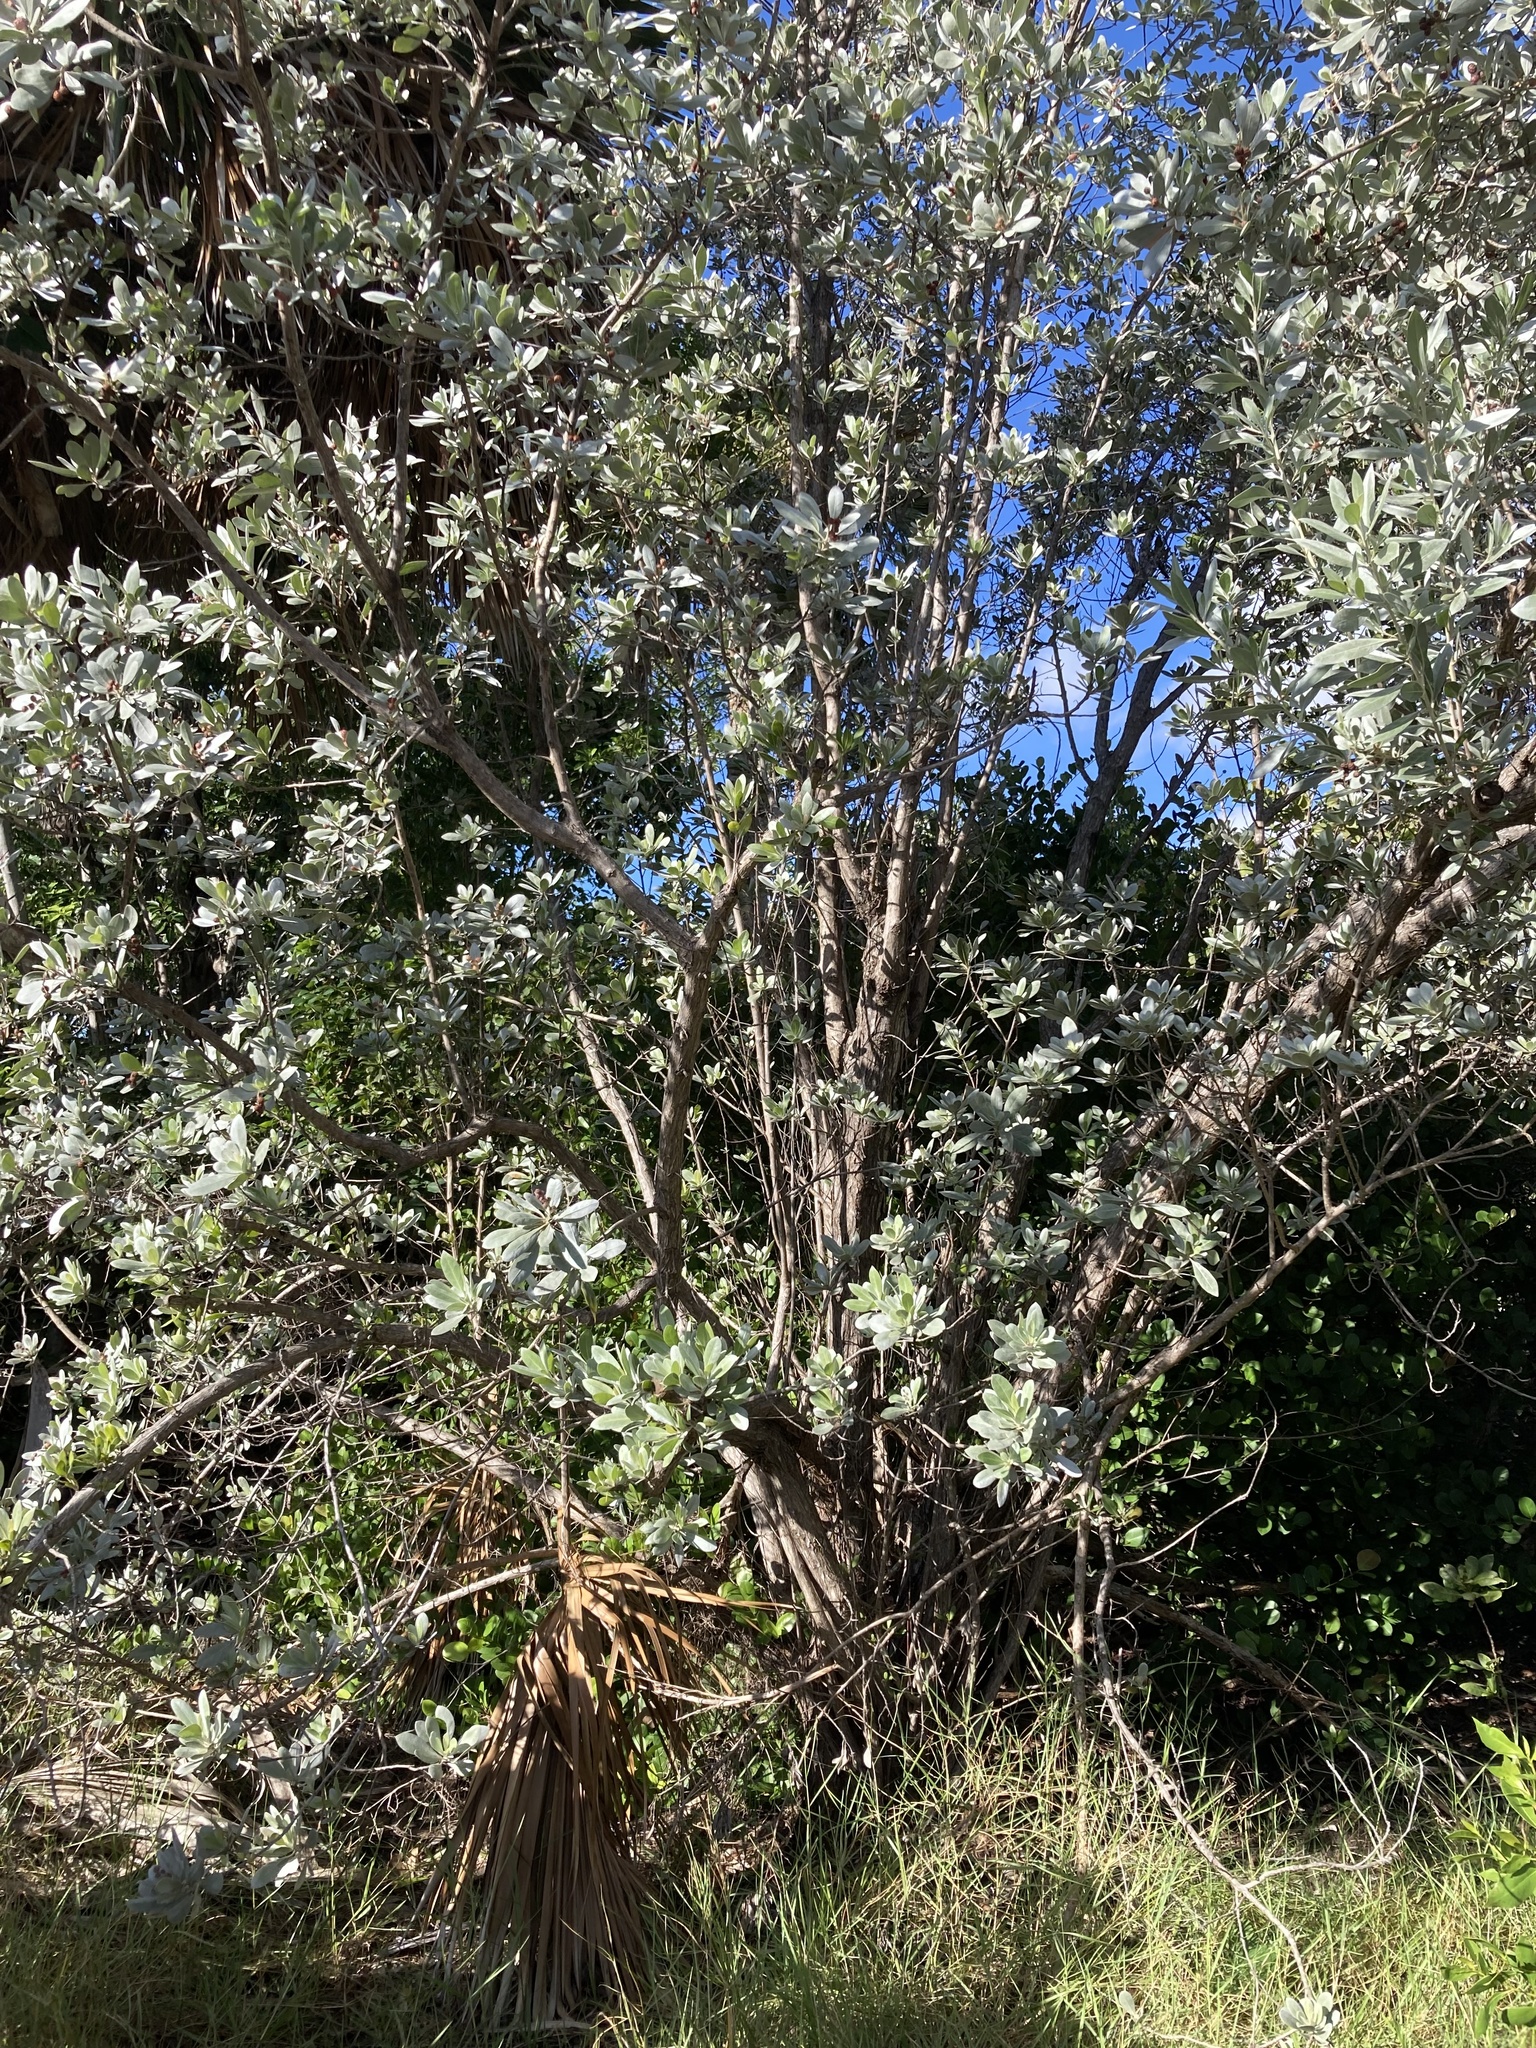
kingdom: Plantae
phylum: Tracheophyta
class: Magnoliopsida
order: Myrtales
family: Combretaceae
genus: Conocarpus
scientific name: Conocarpus erectus
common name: Button mangrove
